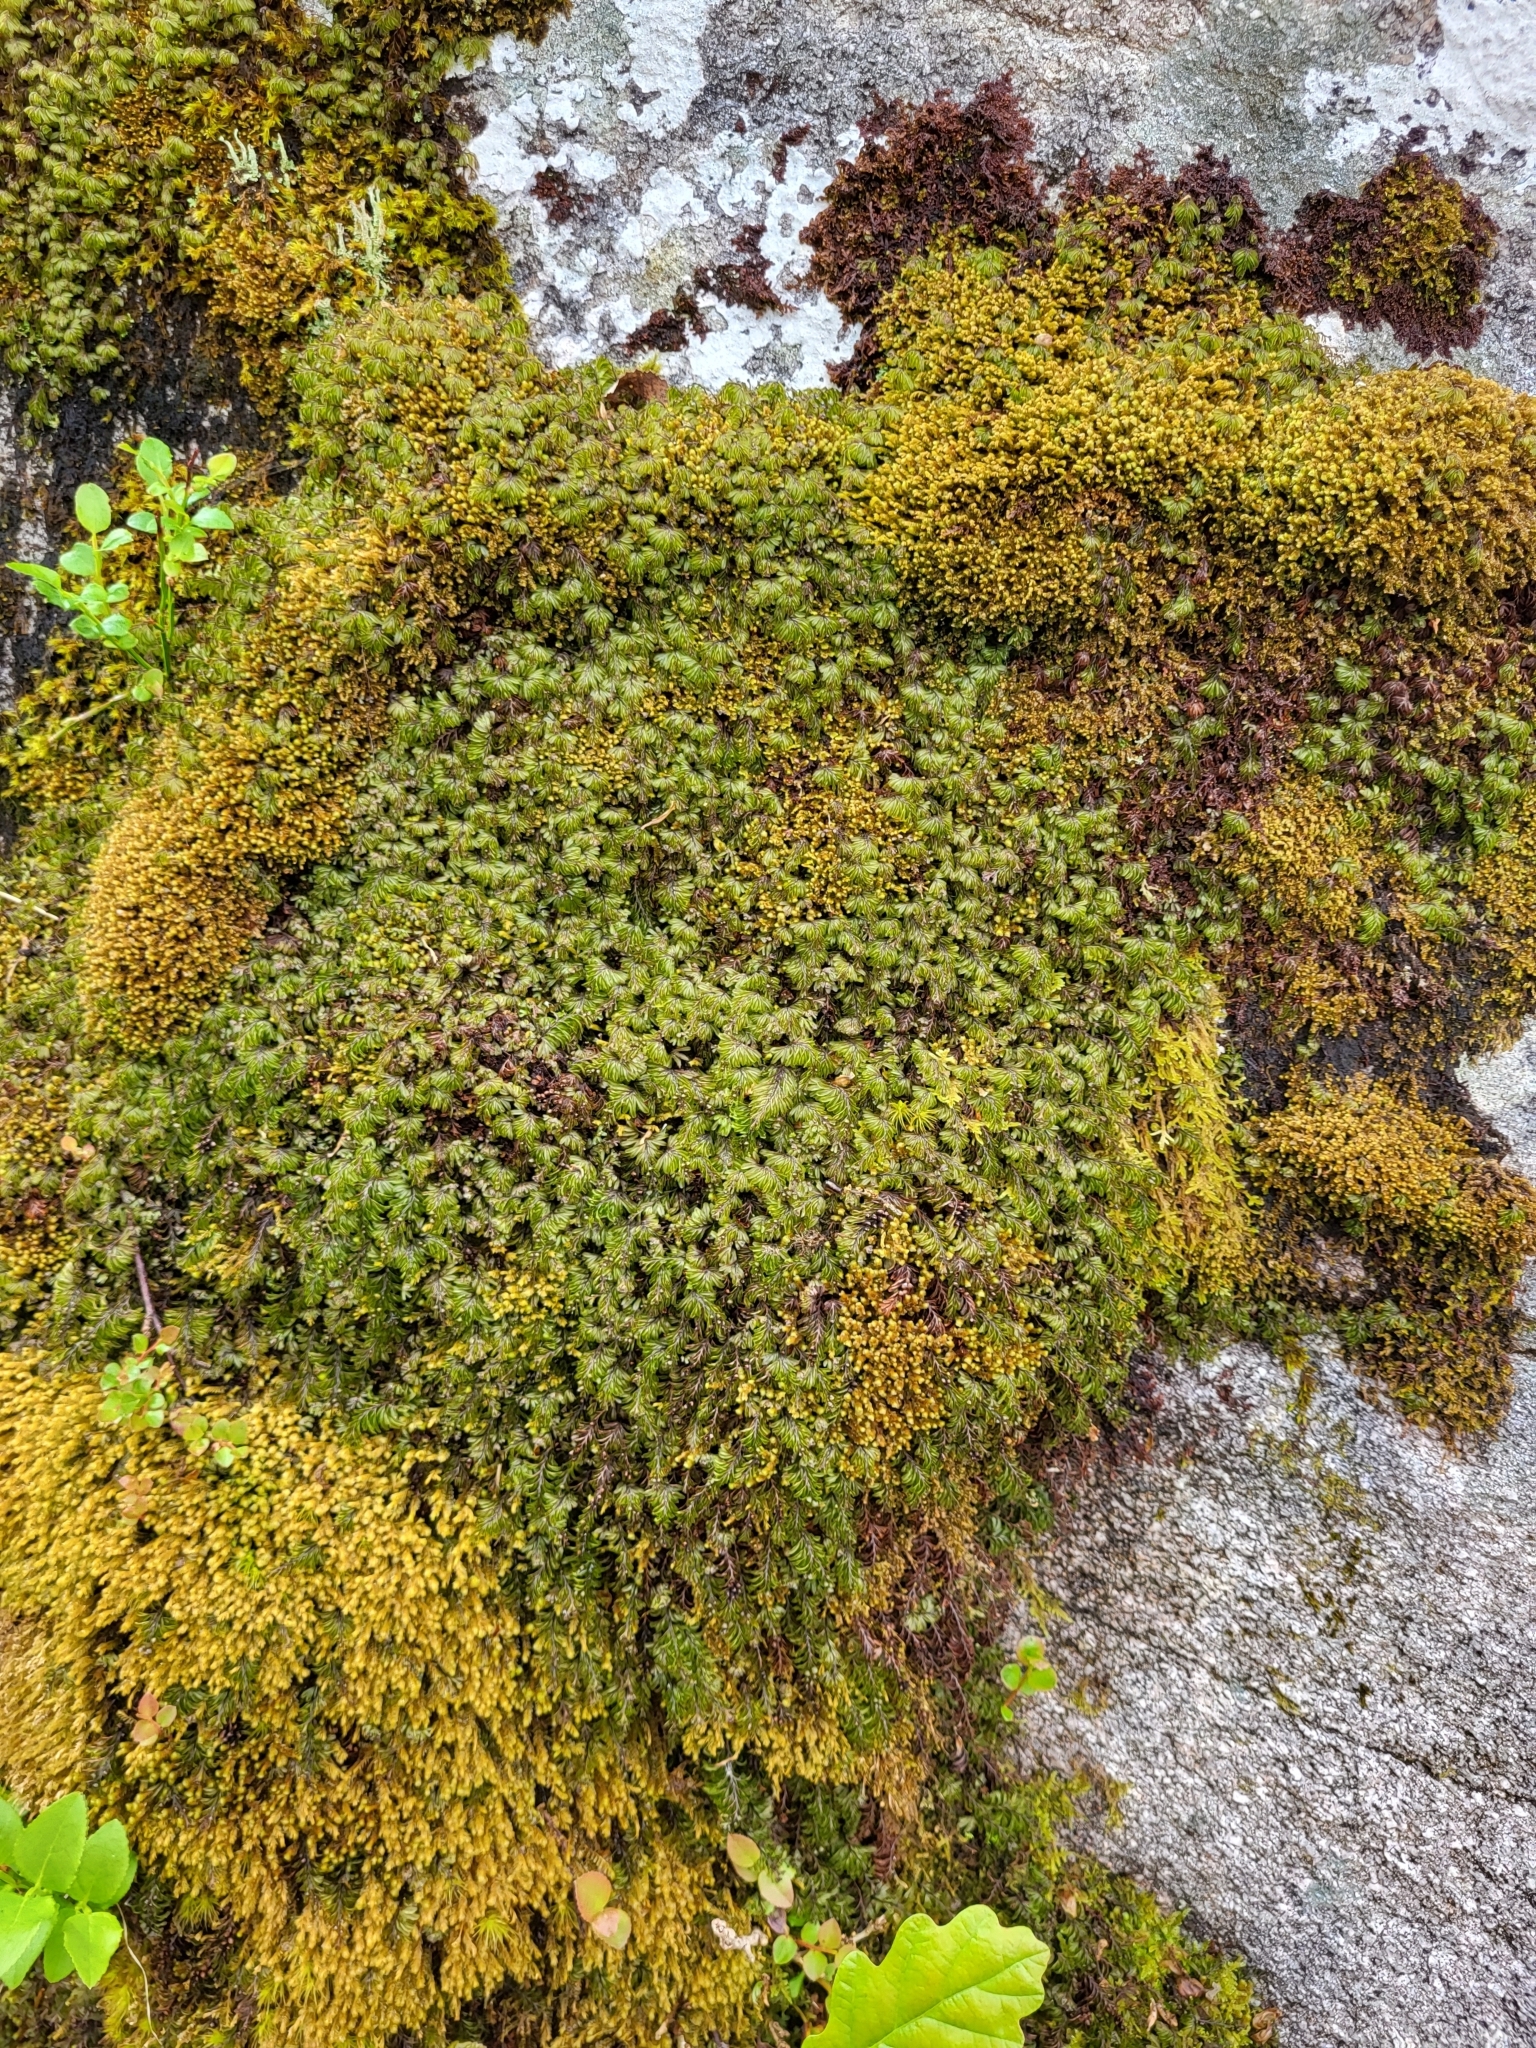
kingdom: Plantae
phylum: Tracheophyta
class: Polypodiopsida
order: Hymenophyllales
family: Hymenophyllaceae
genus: Hymenophyllum
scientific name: Hymenophyllum wilsonii
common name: Wilson's filmy fern
